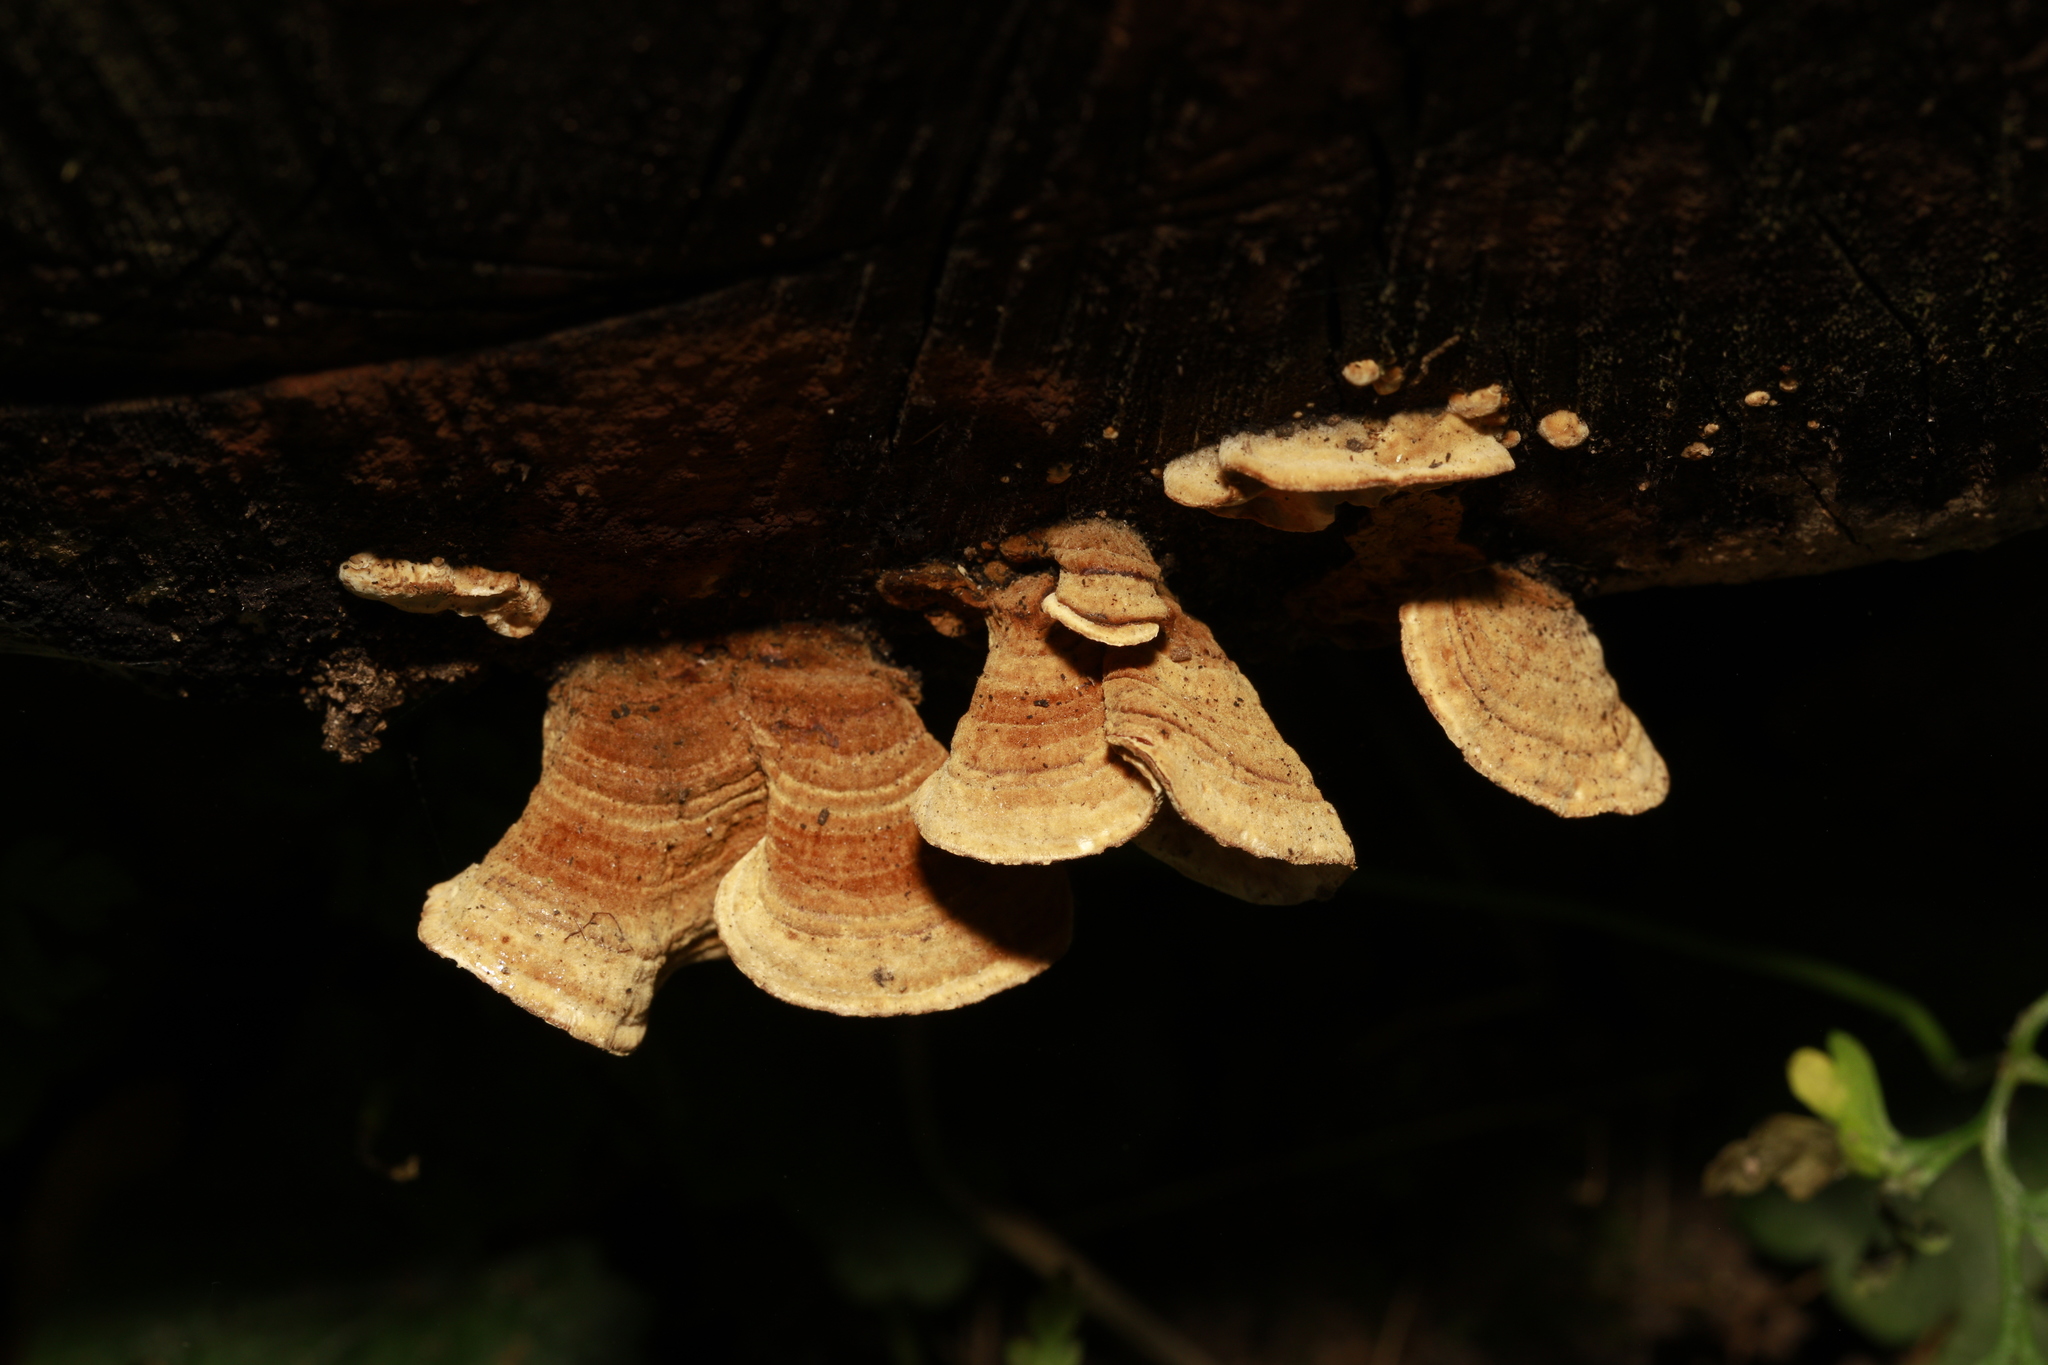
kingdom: Fungi
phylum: Basidiomycota
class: Agaricomycetes
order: Russulales
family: Stereaceae
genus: Stereum
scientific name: Stereum subtomentosum
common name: Yellowing curtain crust
